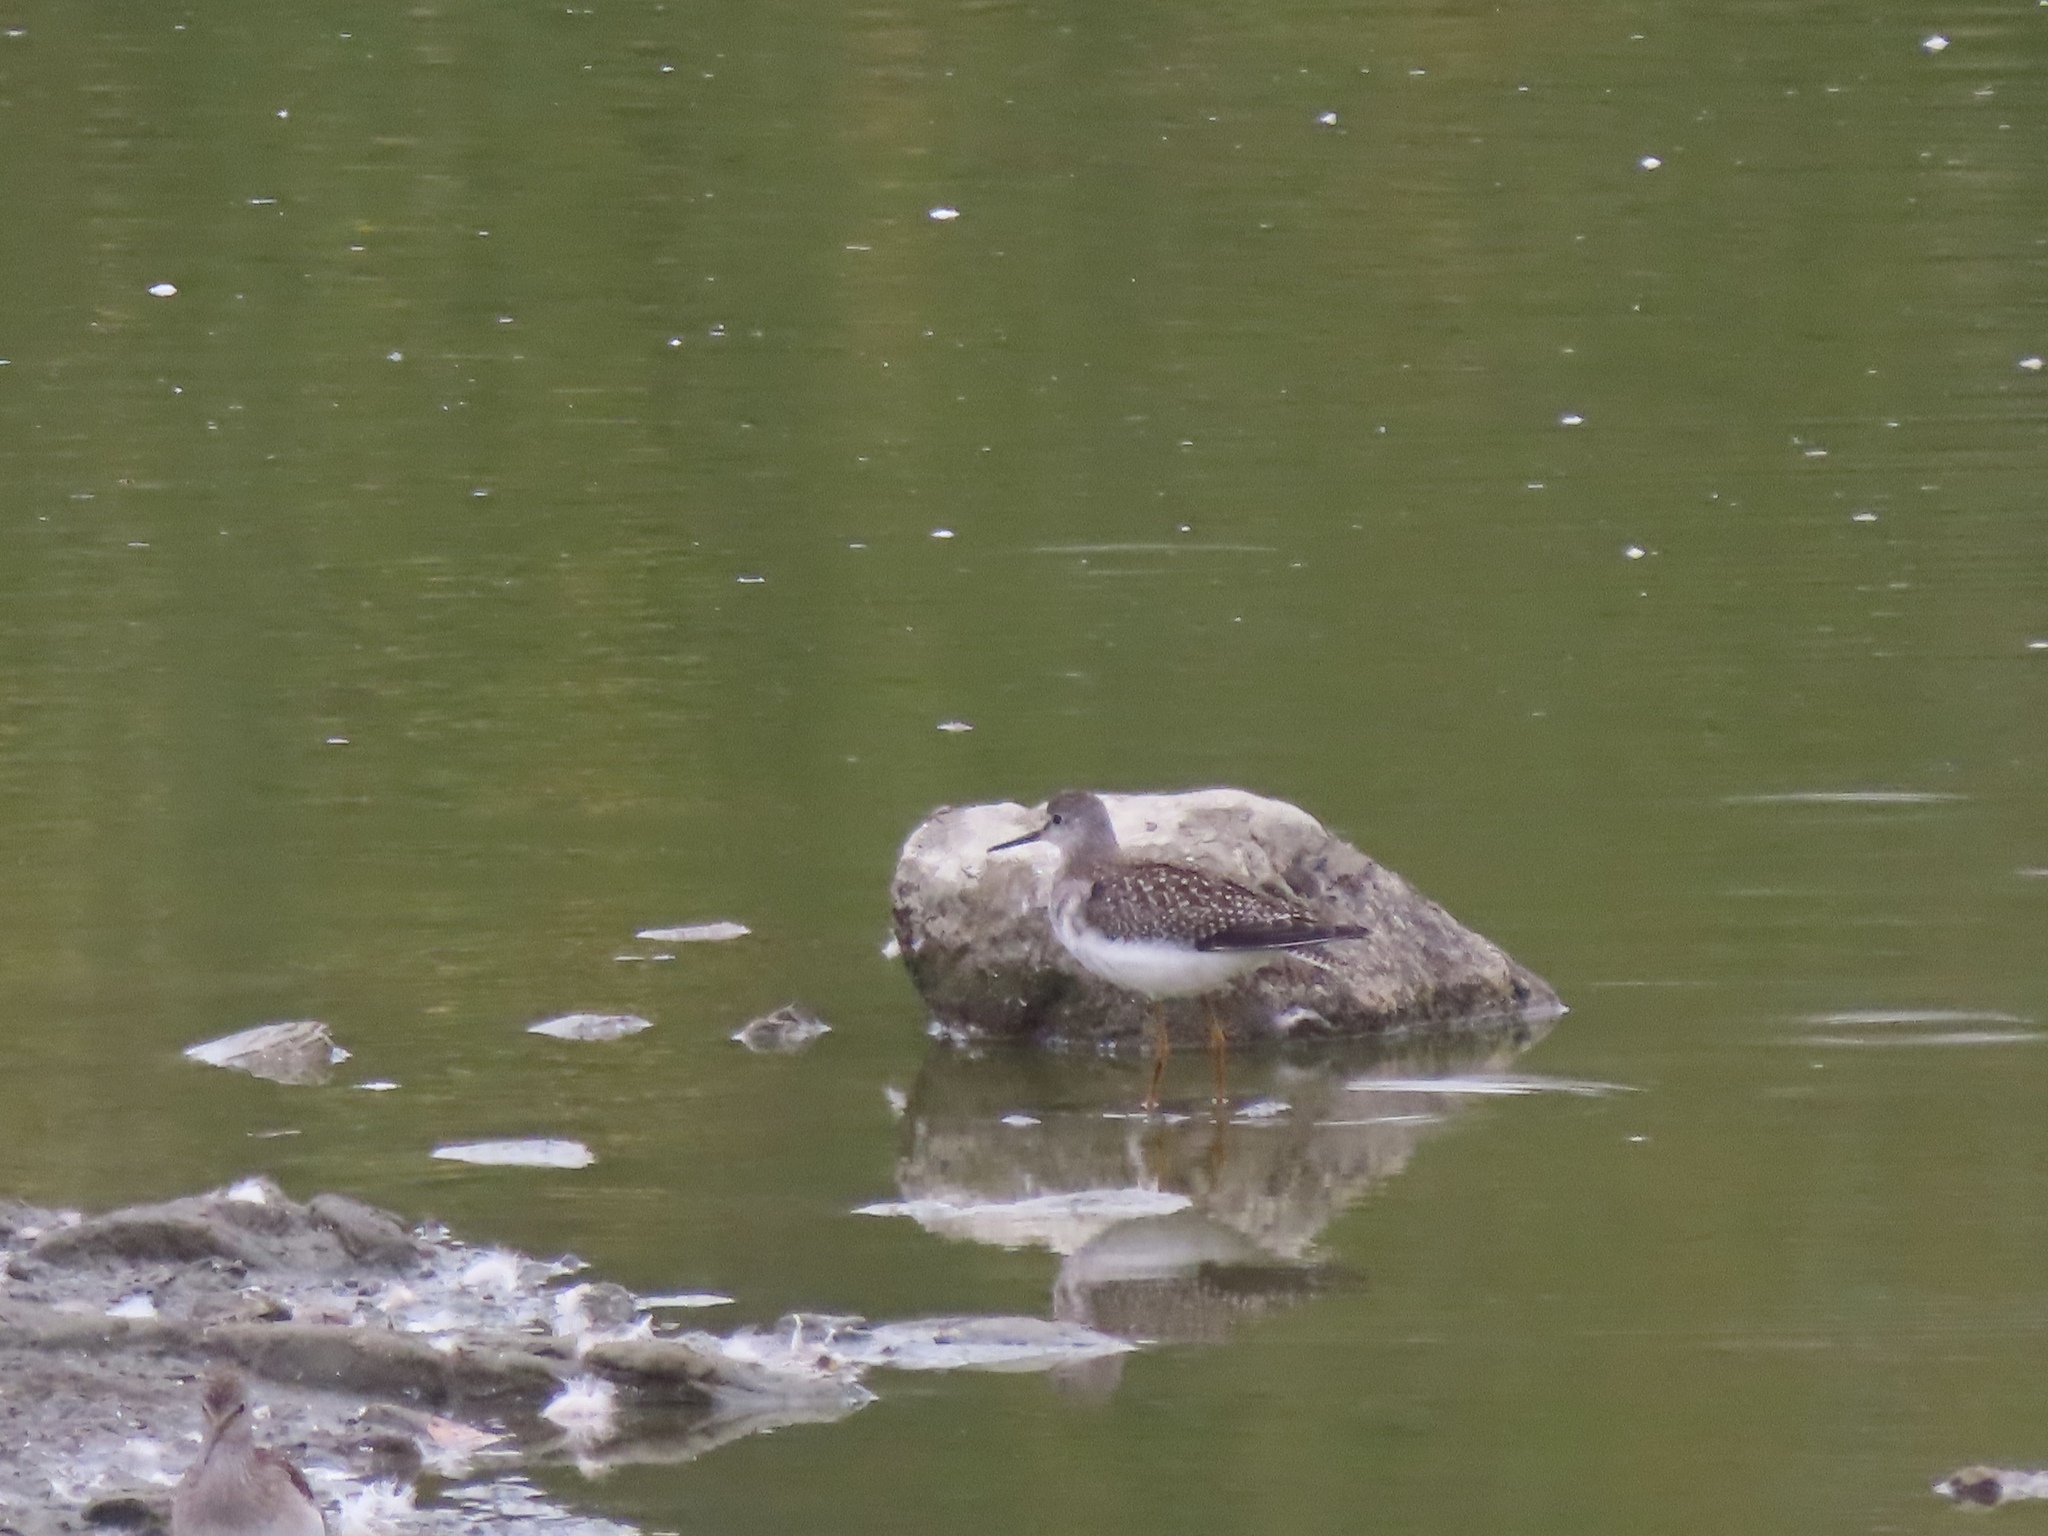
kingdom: Animalia
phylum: Chordata
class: Aves
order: Charadriiformes
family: Scolopacidae
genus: Tringa
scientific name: Tringa flavipes
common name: Lesser yellowlegs
